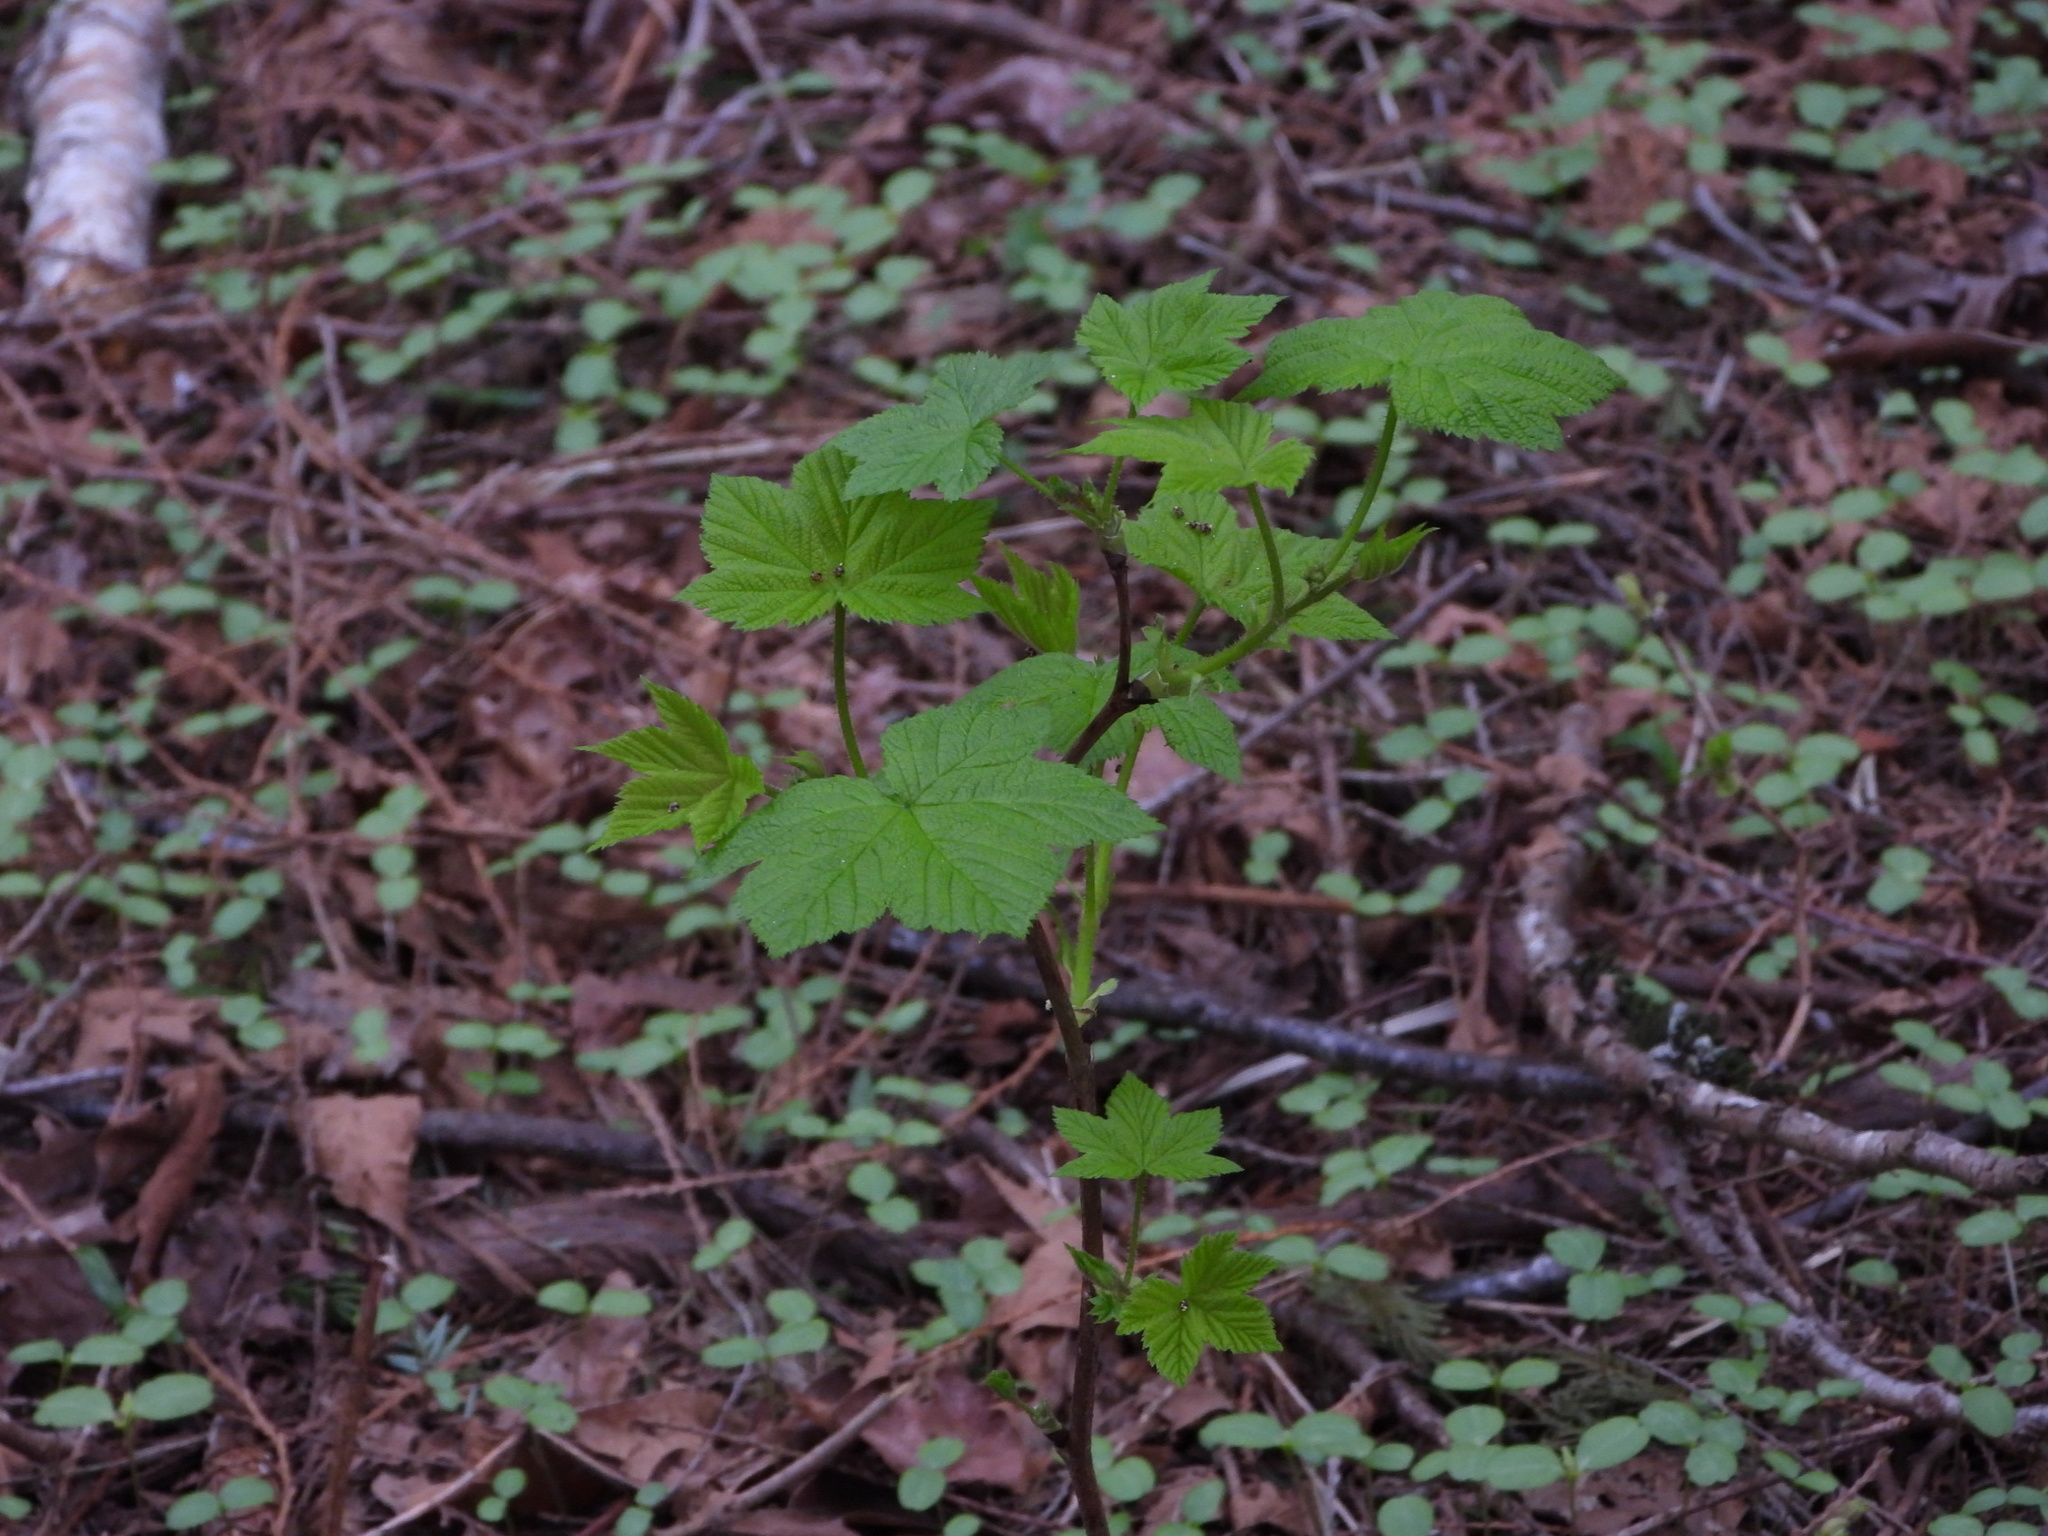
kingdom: Plantae
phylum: Tracheophyta
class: Magnoliopsida
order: Rosales
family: Rosaceae
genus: Rubus
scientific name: Rubus parviflorus
